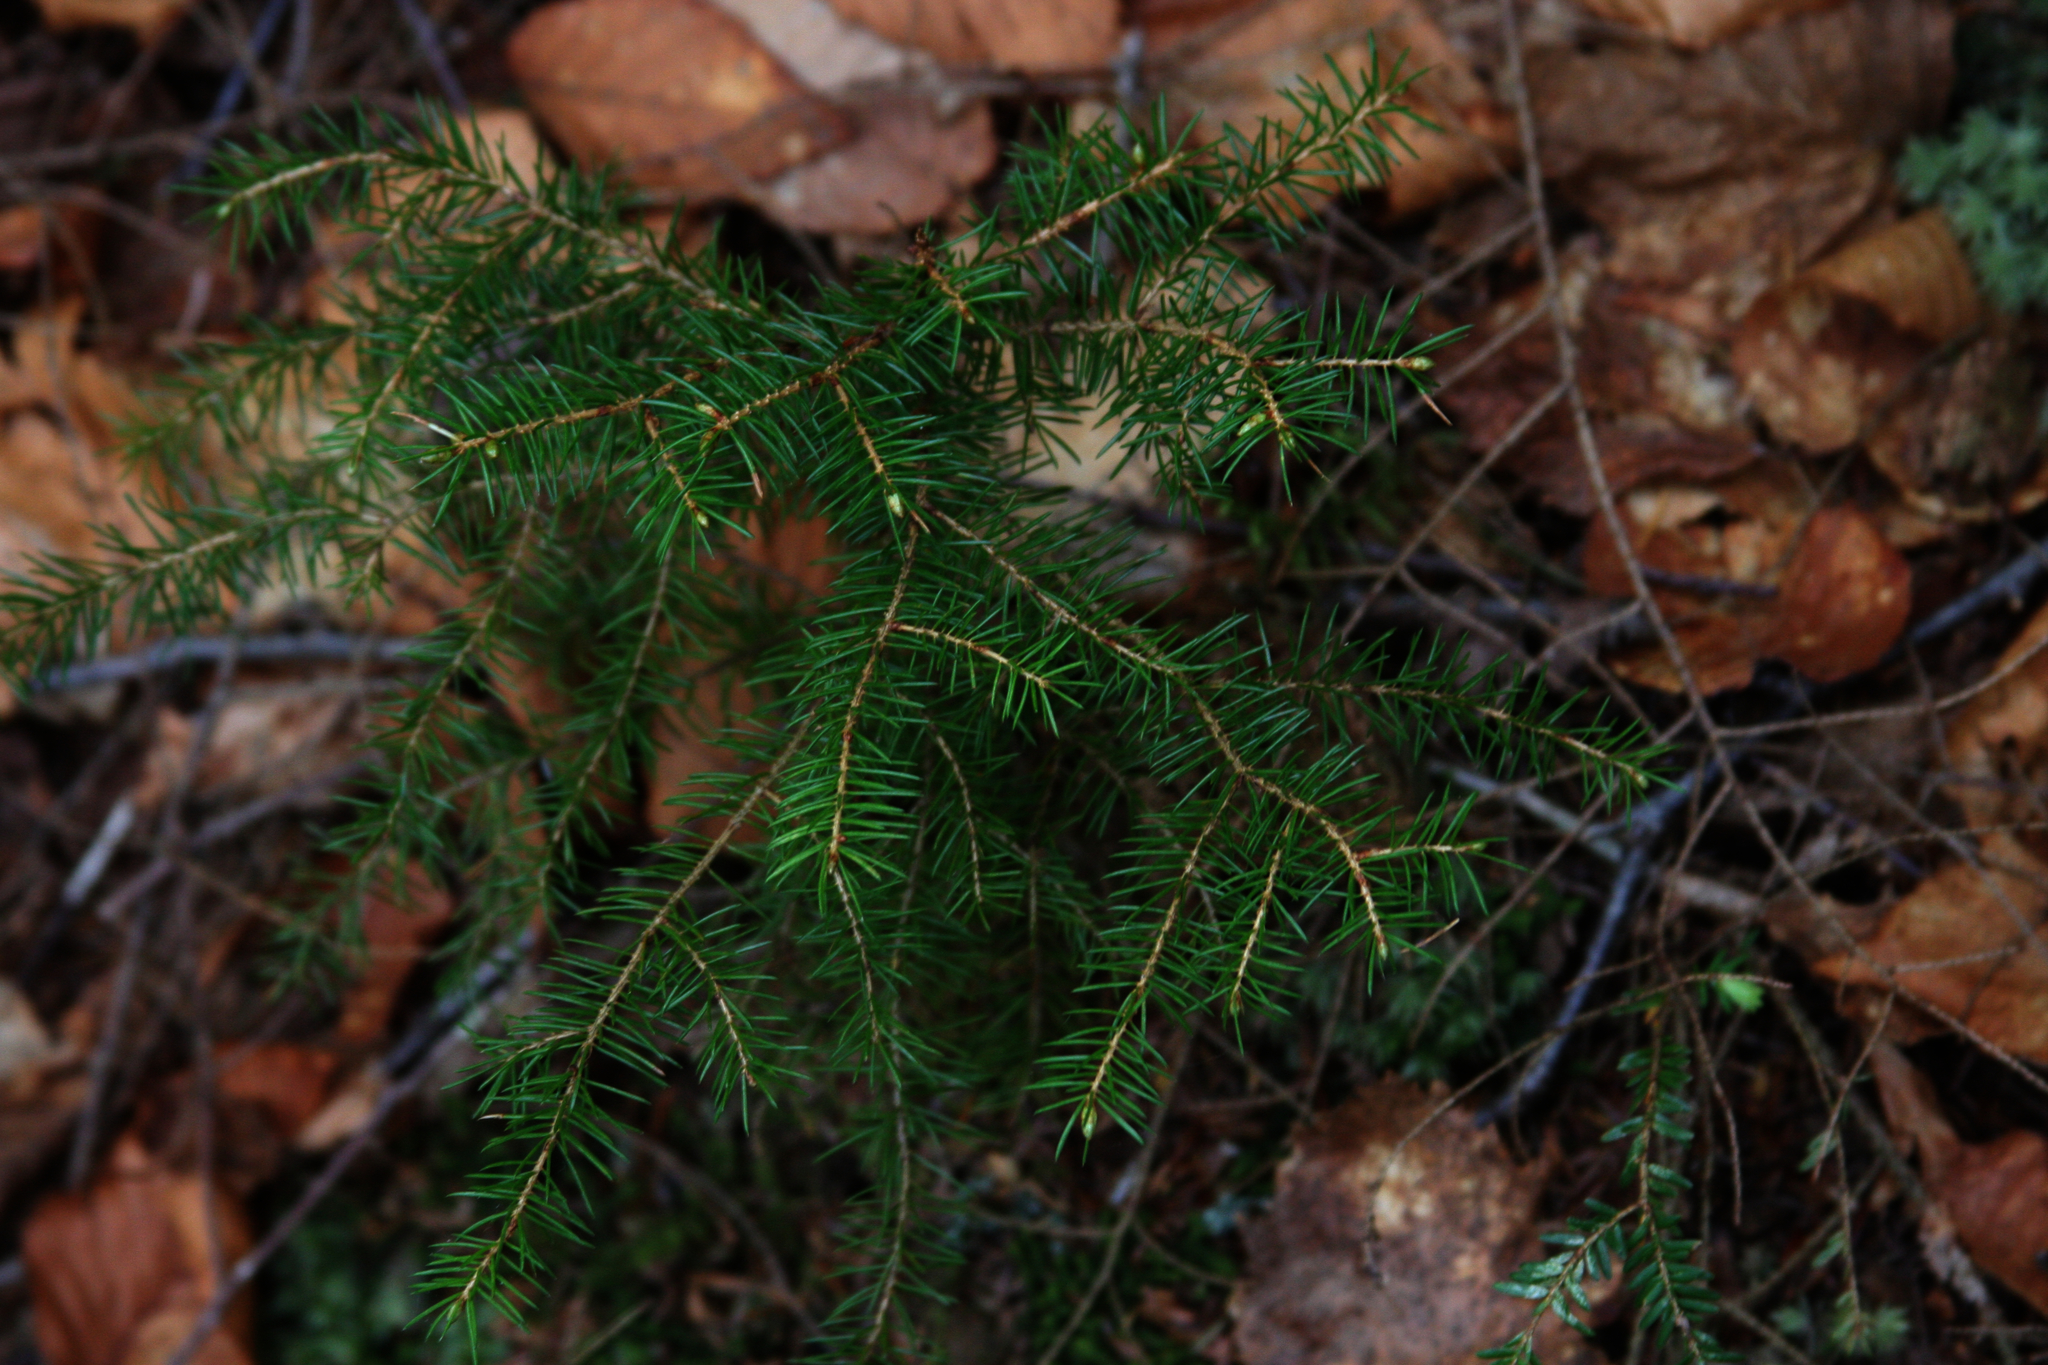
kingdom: Plantae
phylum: Tracheophyta
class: Pinopsida
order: Pinales
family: Pinaceae
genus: Picea
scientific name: Picea rubens
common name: Red spruce
